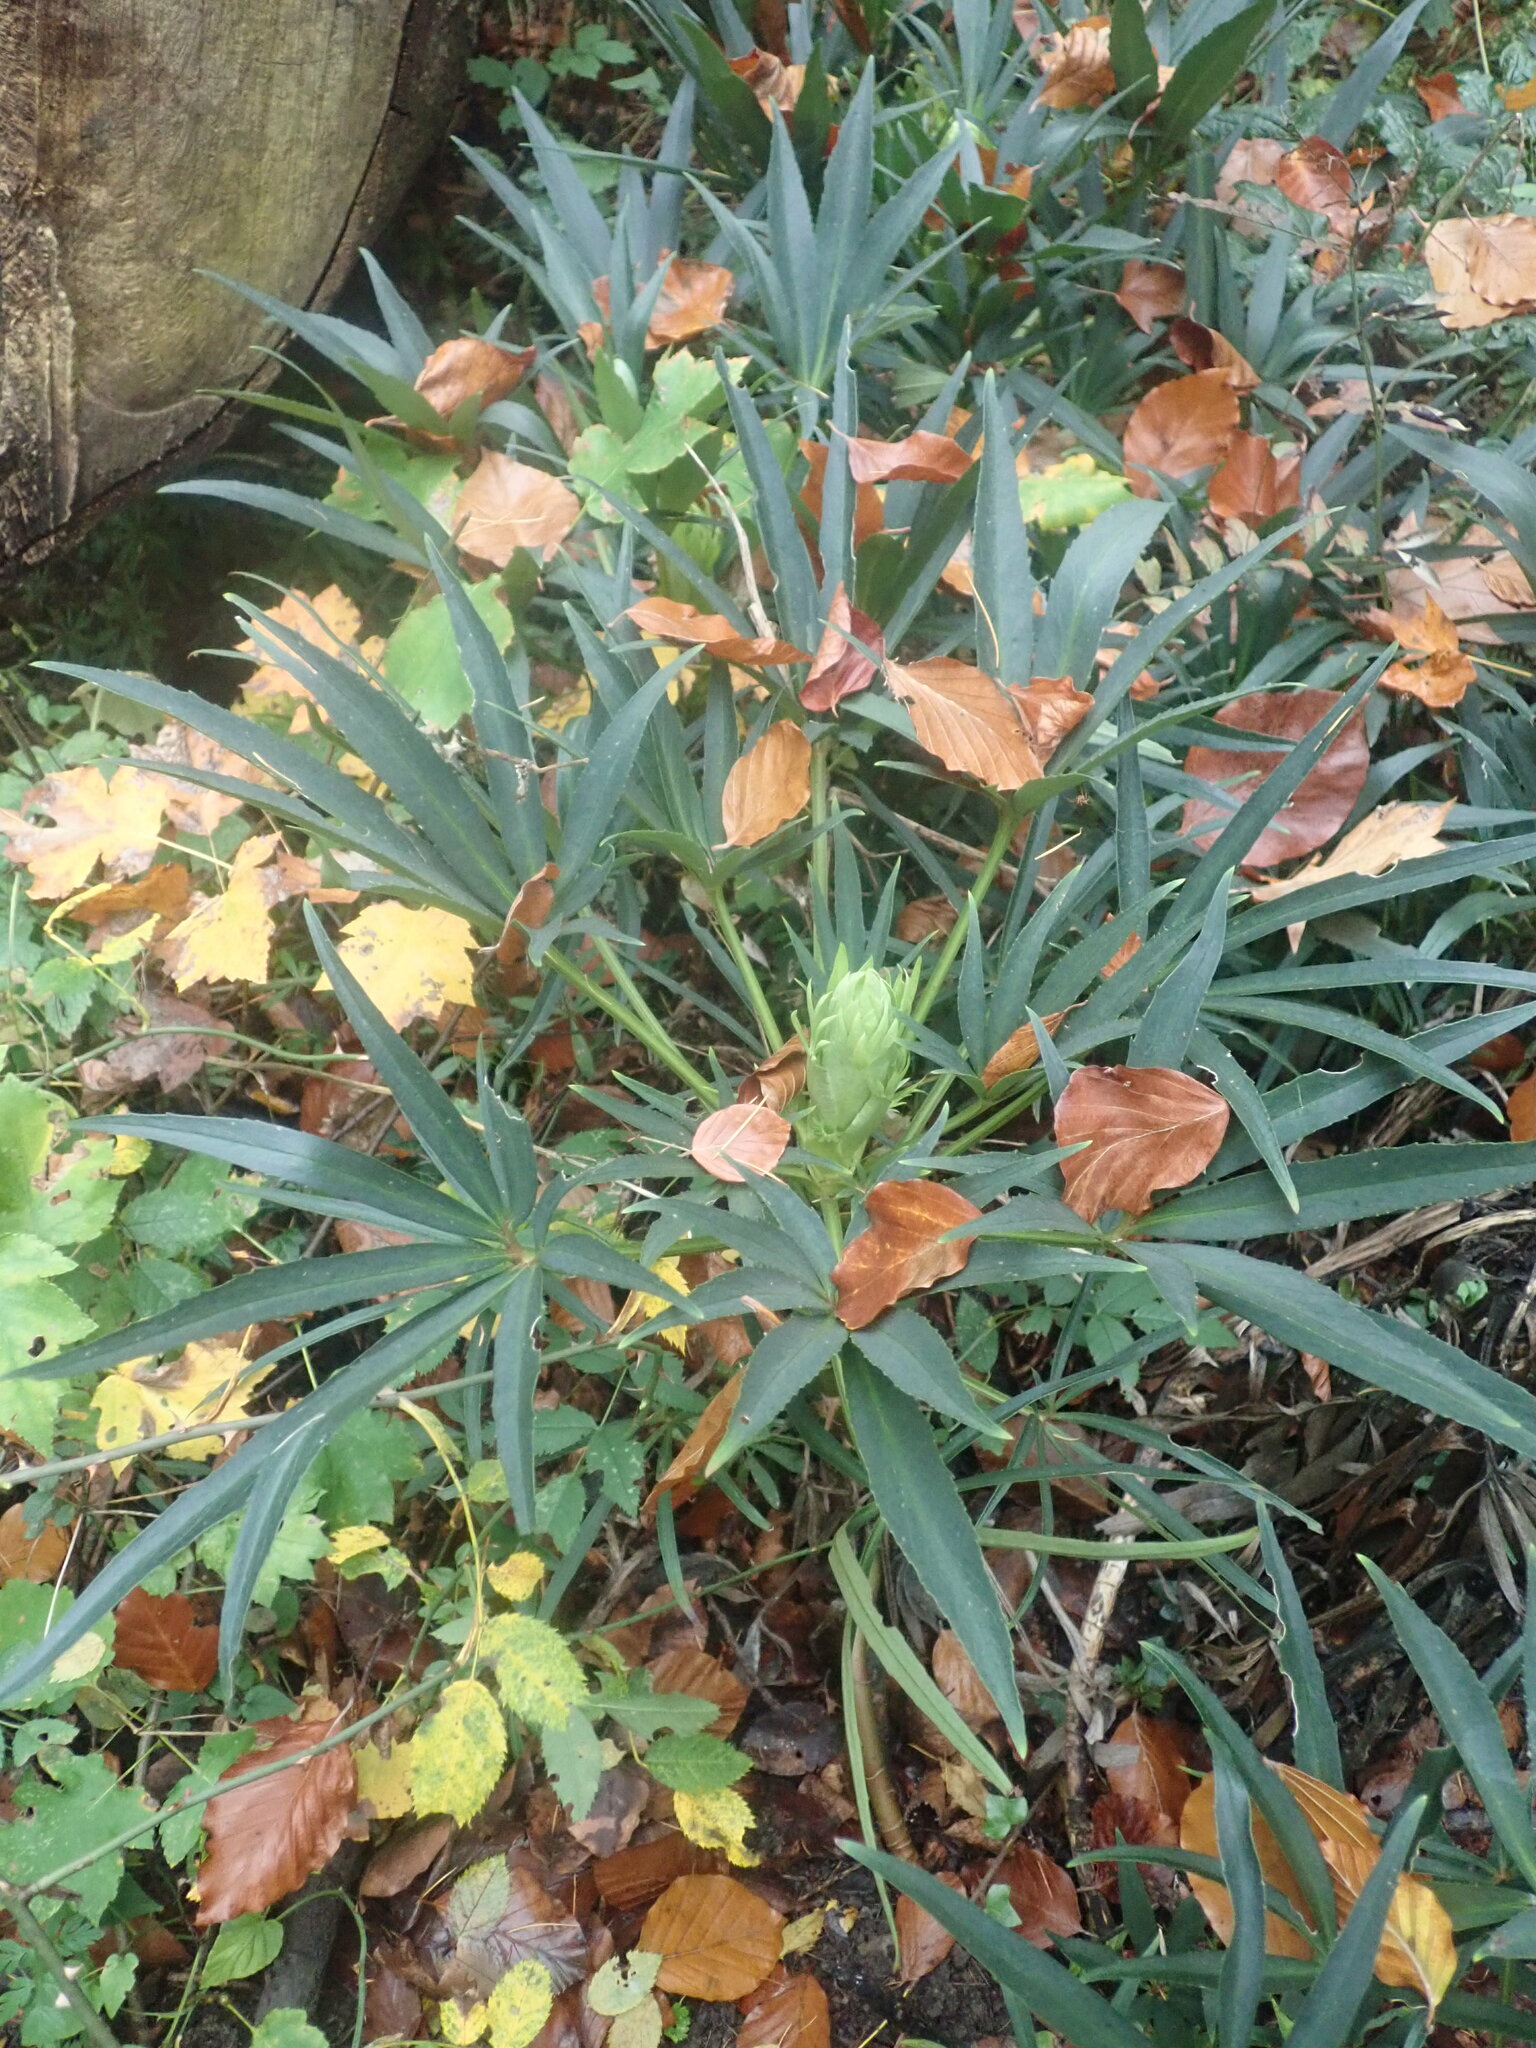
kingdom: Plantae
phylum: Tracheophyta
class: Magnoliopsida
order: Ranunculales
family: Ranunculaceae
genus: Helleborus
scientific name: Helleborus foetidus
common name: Stinking hellebore
